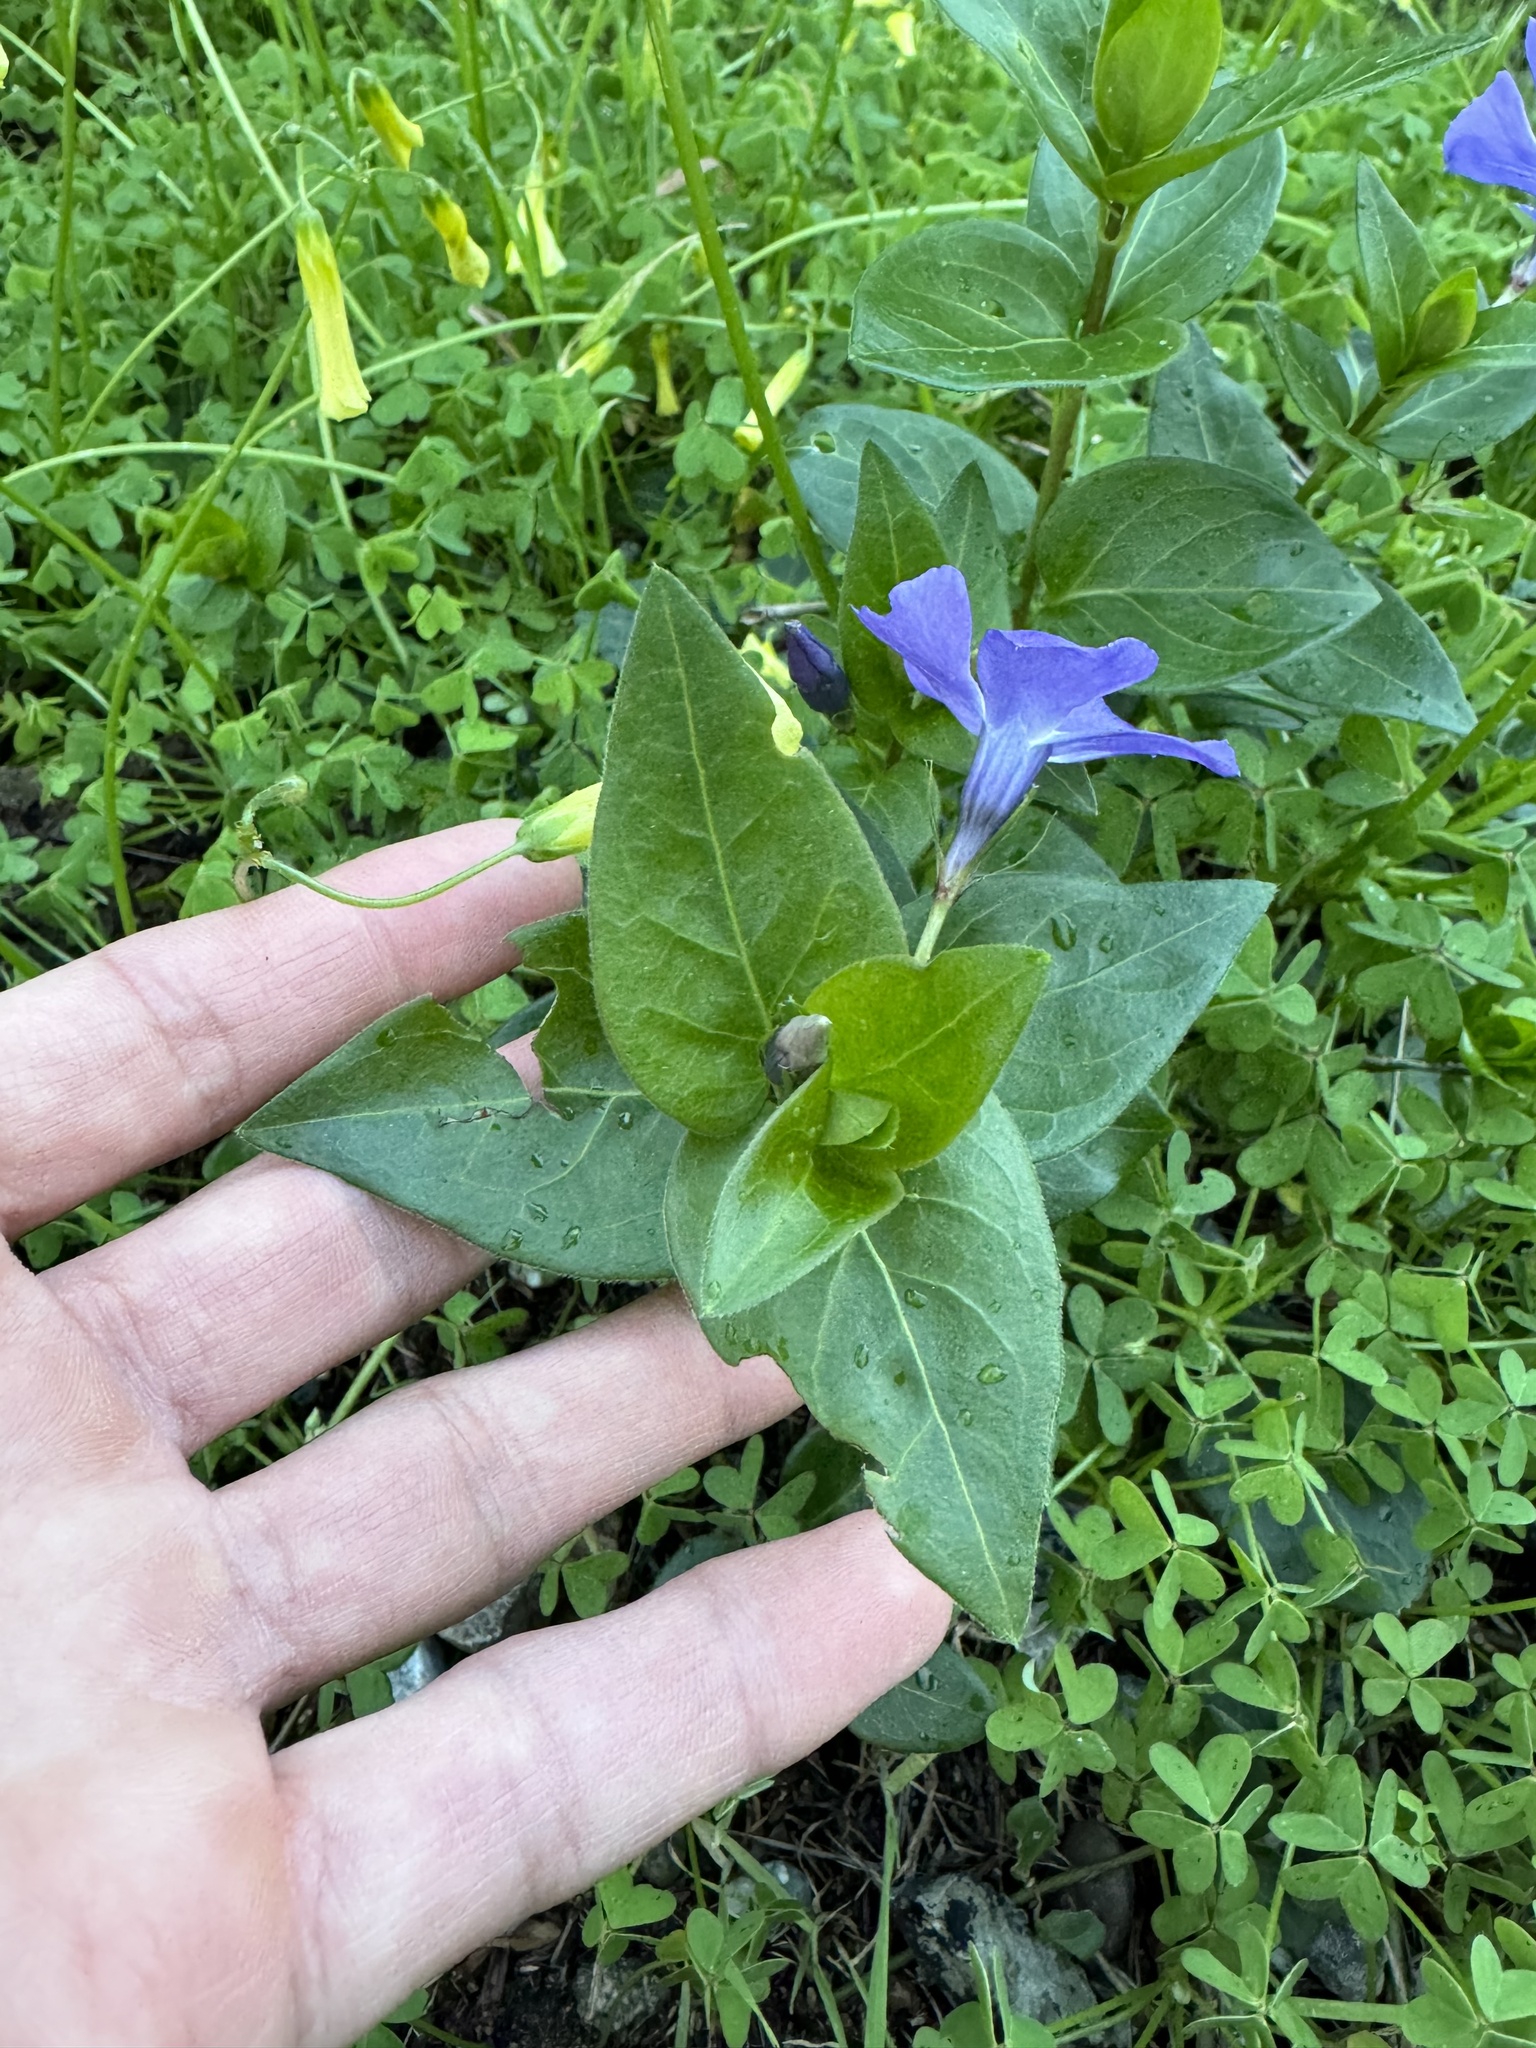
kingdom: Plantae
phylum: Tracheophyta
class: Magnoliopsida
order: Gentianales
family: Apocynaceae
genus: Vinca
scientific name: Vinca major
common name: Greater periwinkle
